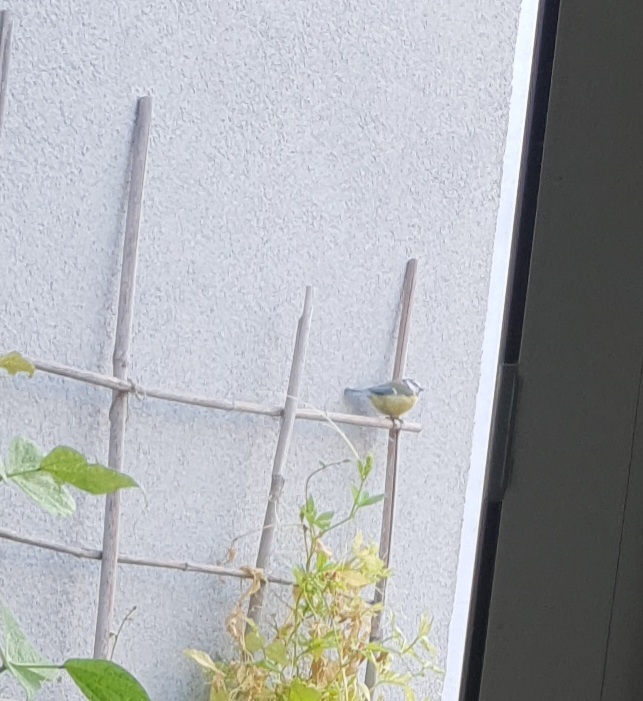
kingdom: Animalia
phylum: Chordata
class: Aves
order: Passeriformes
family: Paridae
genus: Cyanistes
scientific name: Cyanistes caeruleus
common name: Eurasian blue tit
